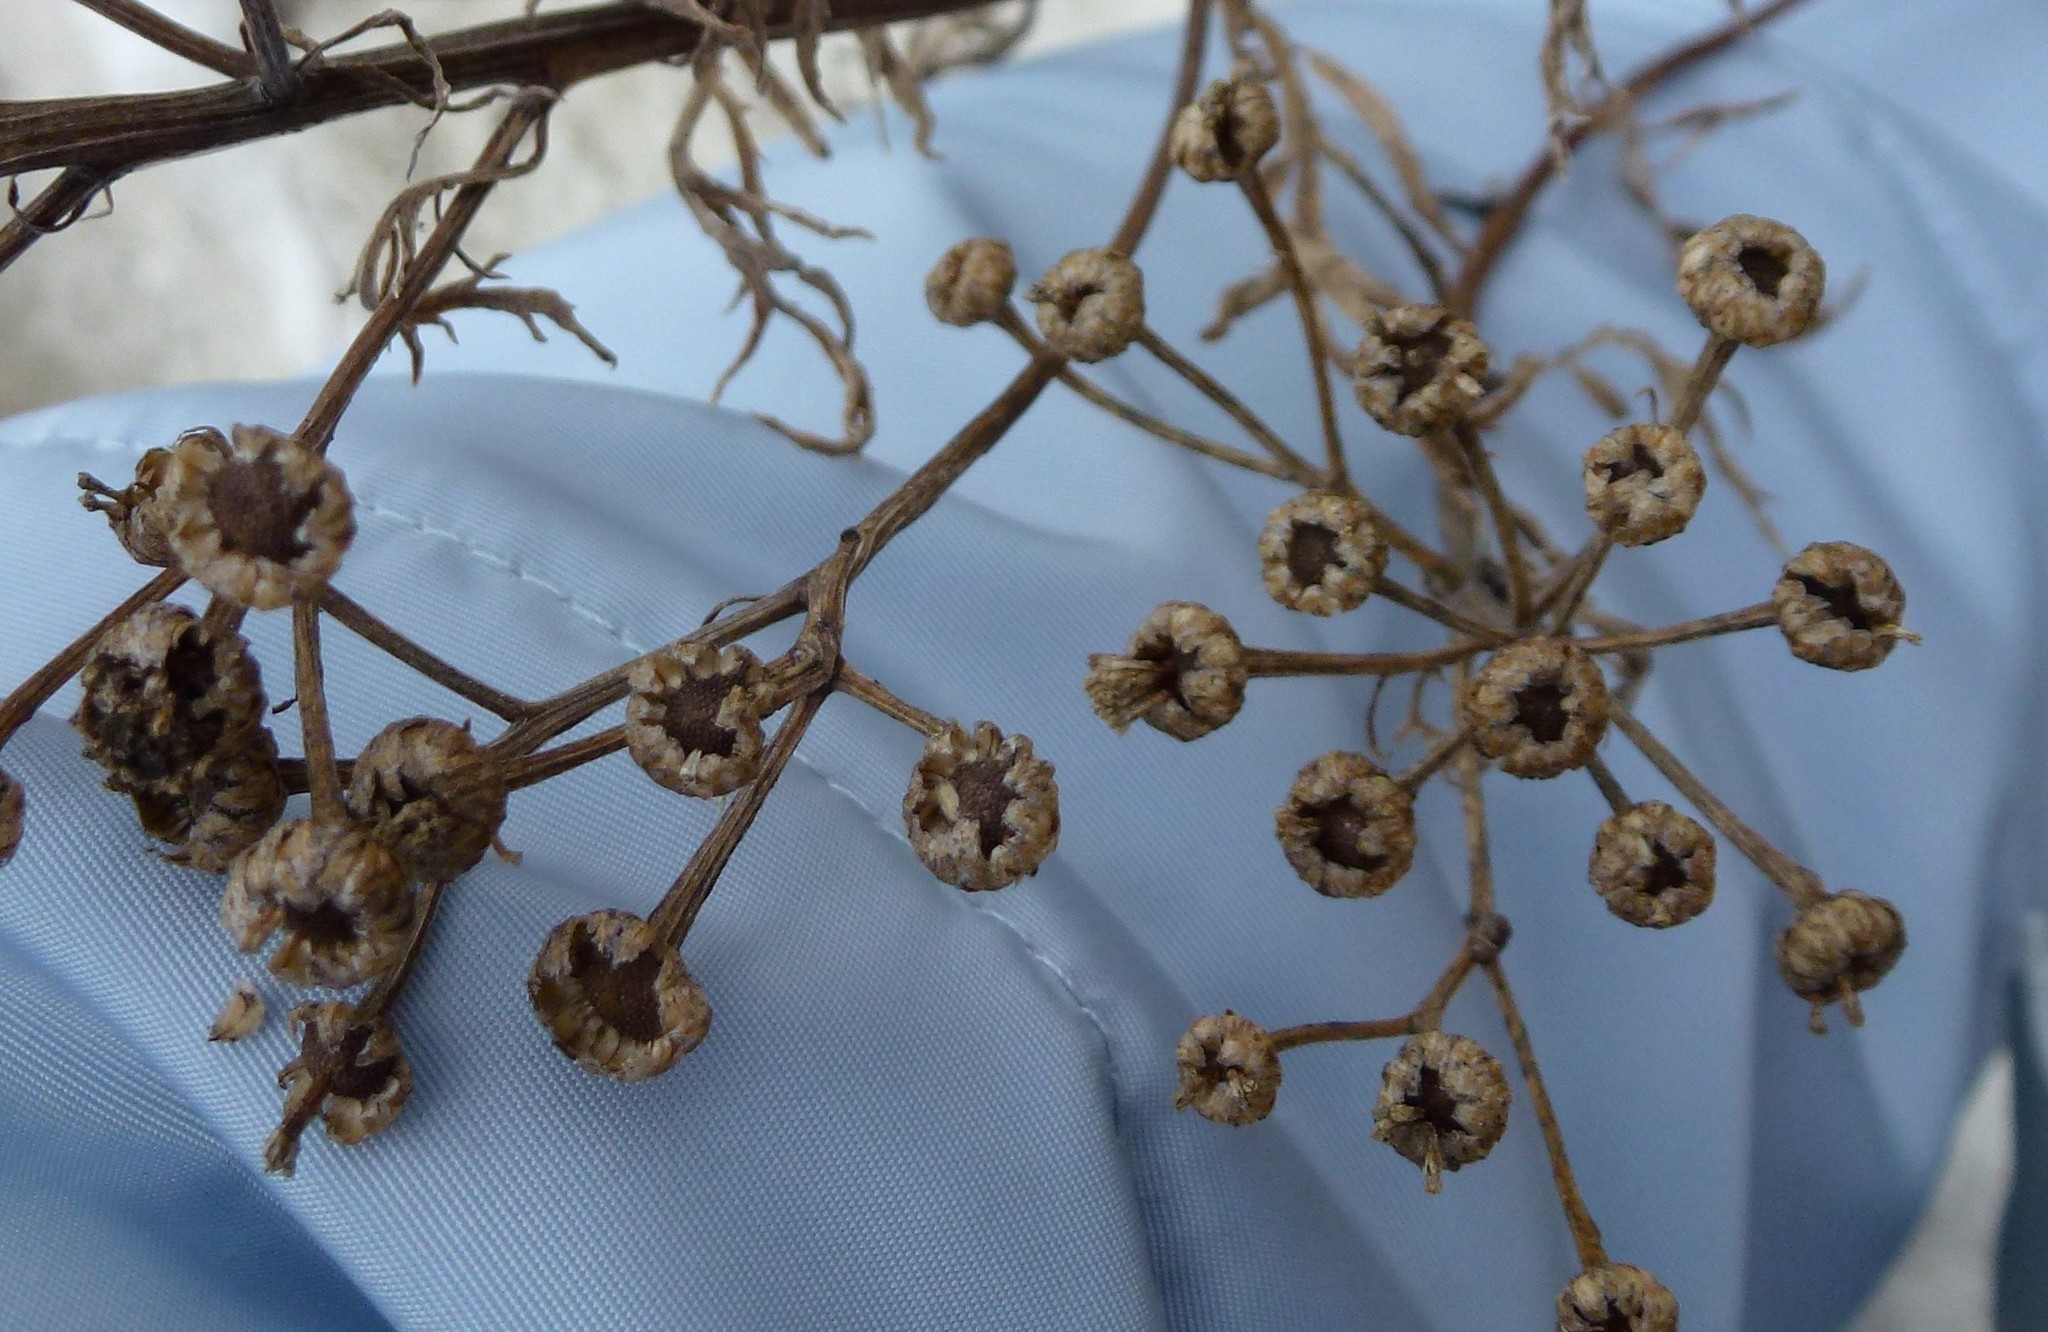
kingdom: Plantae
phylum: Tracheophyta
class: Magnoliopsida
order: Asterales
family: Asteraceae
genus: Tanacetum
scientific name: Tanacetum vulgare
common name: Common tansy
